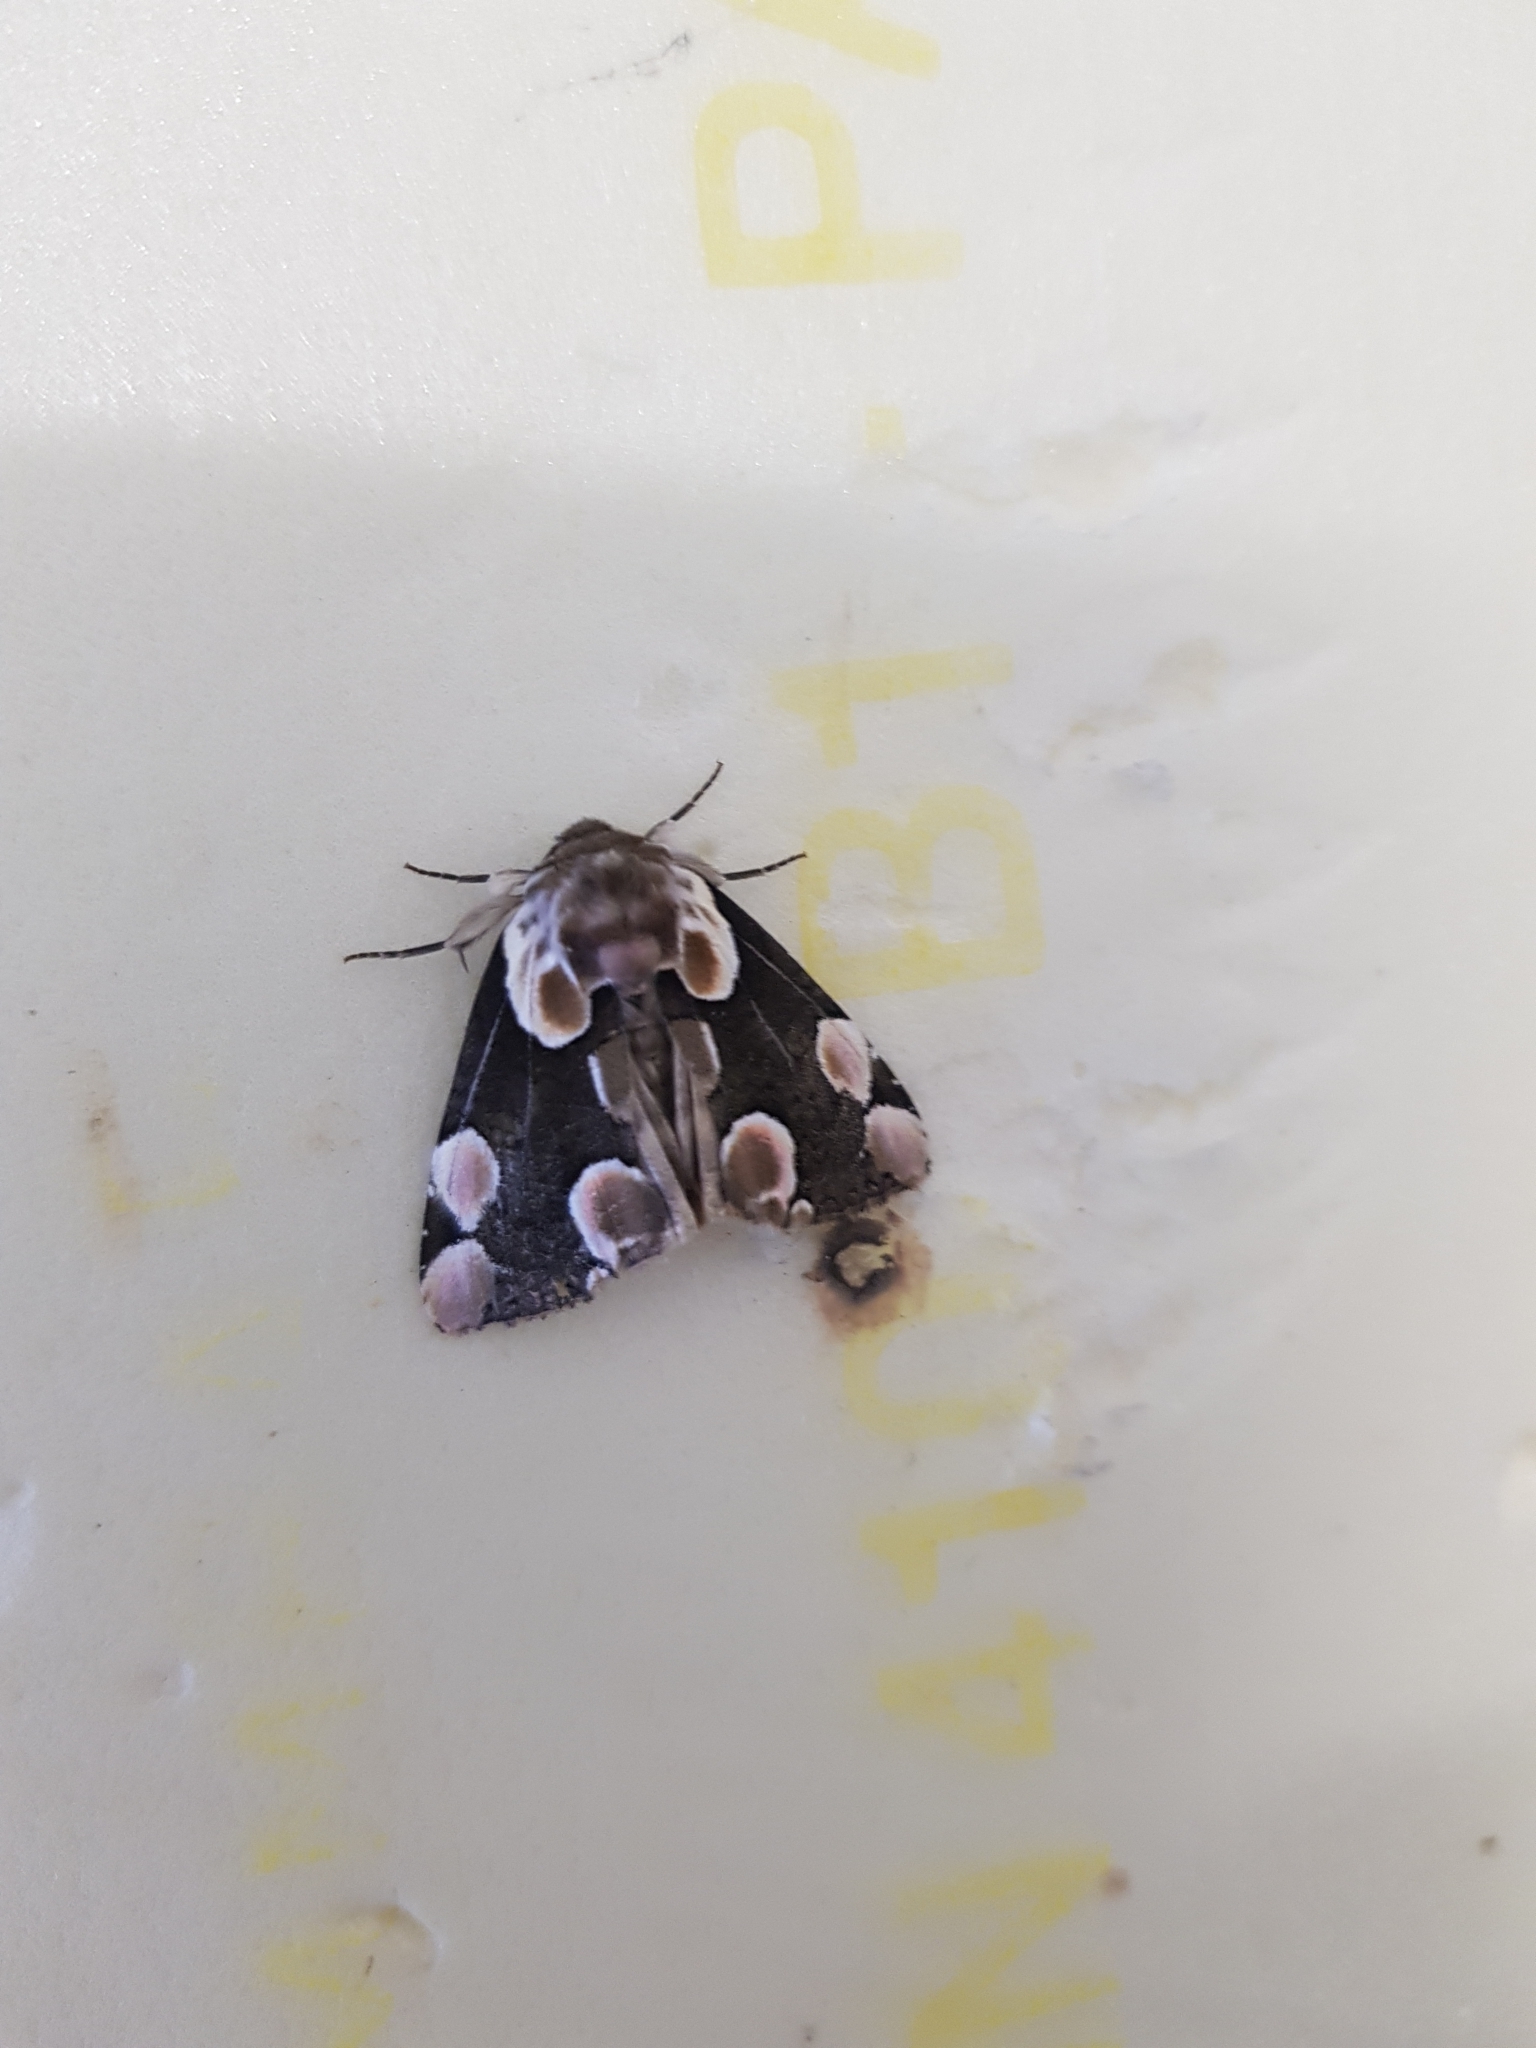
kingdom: Animalia
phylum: Arthropoda
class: Insecta
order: Lepidoptera
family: Drepanidae
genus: Thyatira
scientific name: Thyatira batis
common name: Peach blossom
